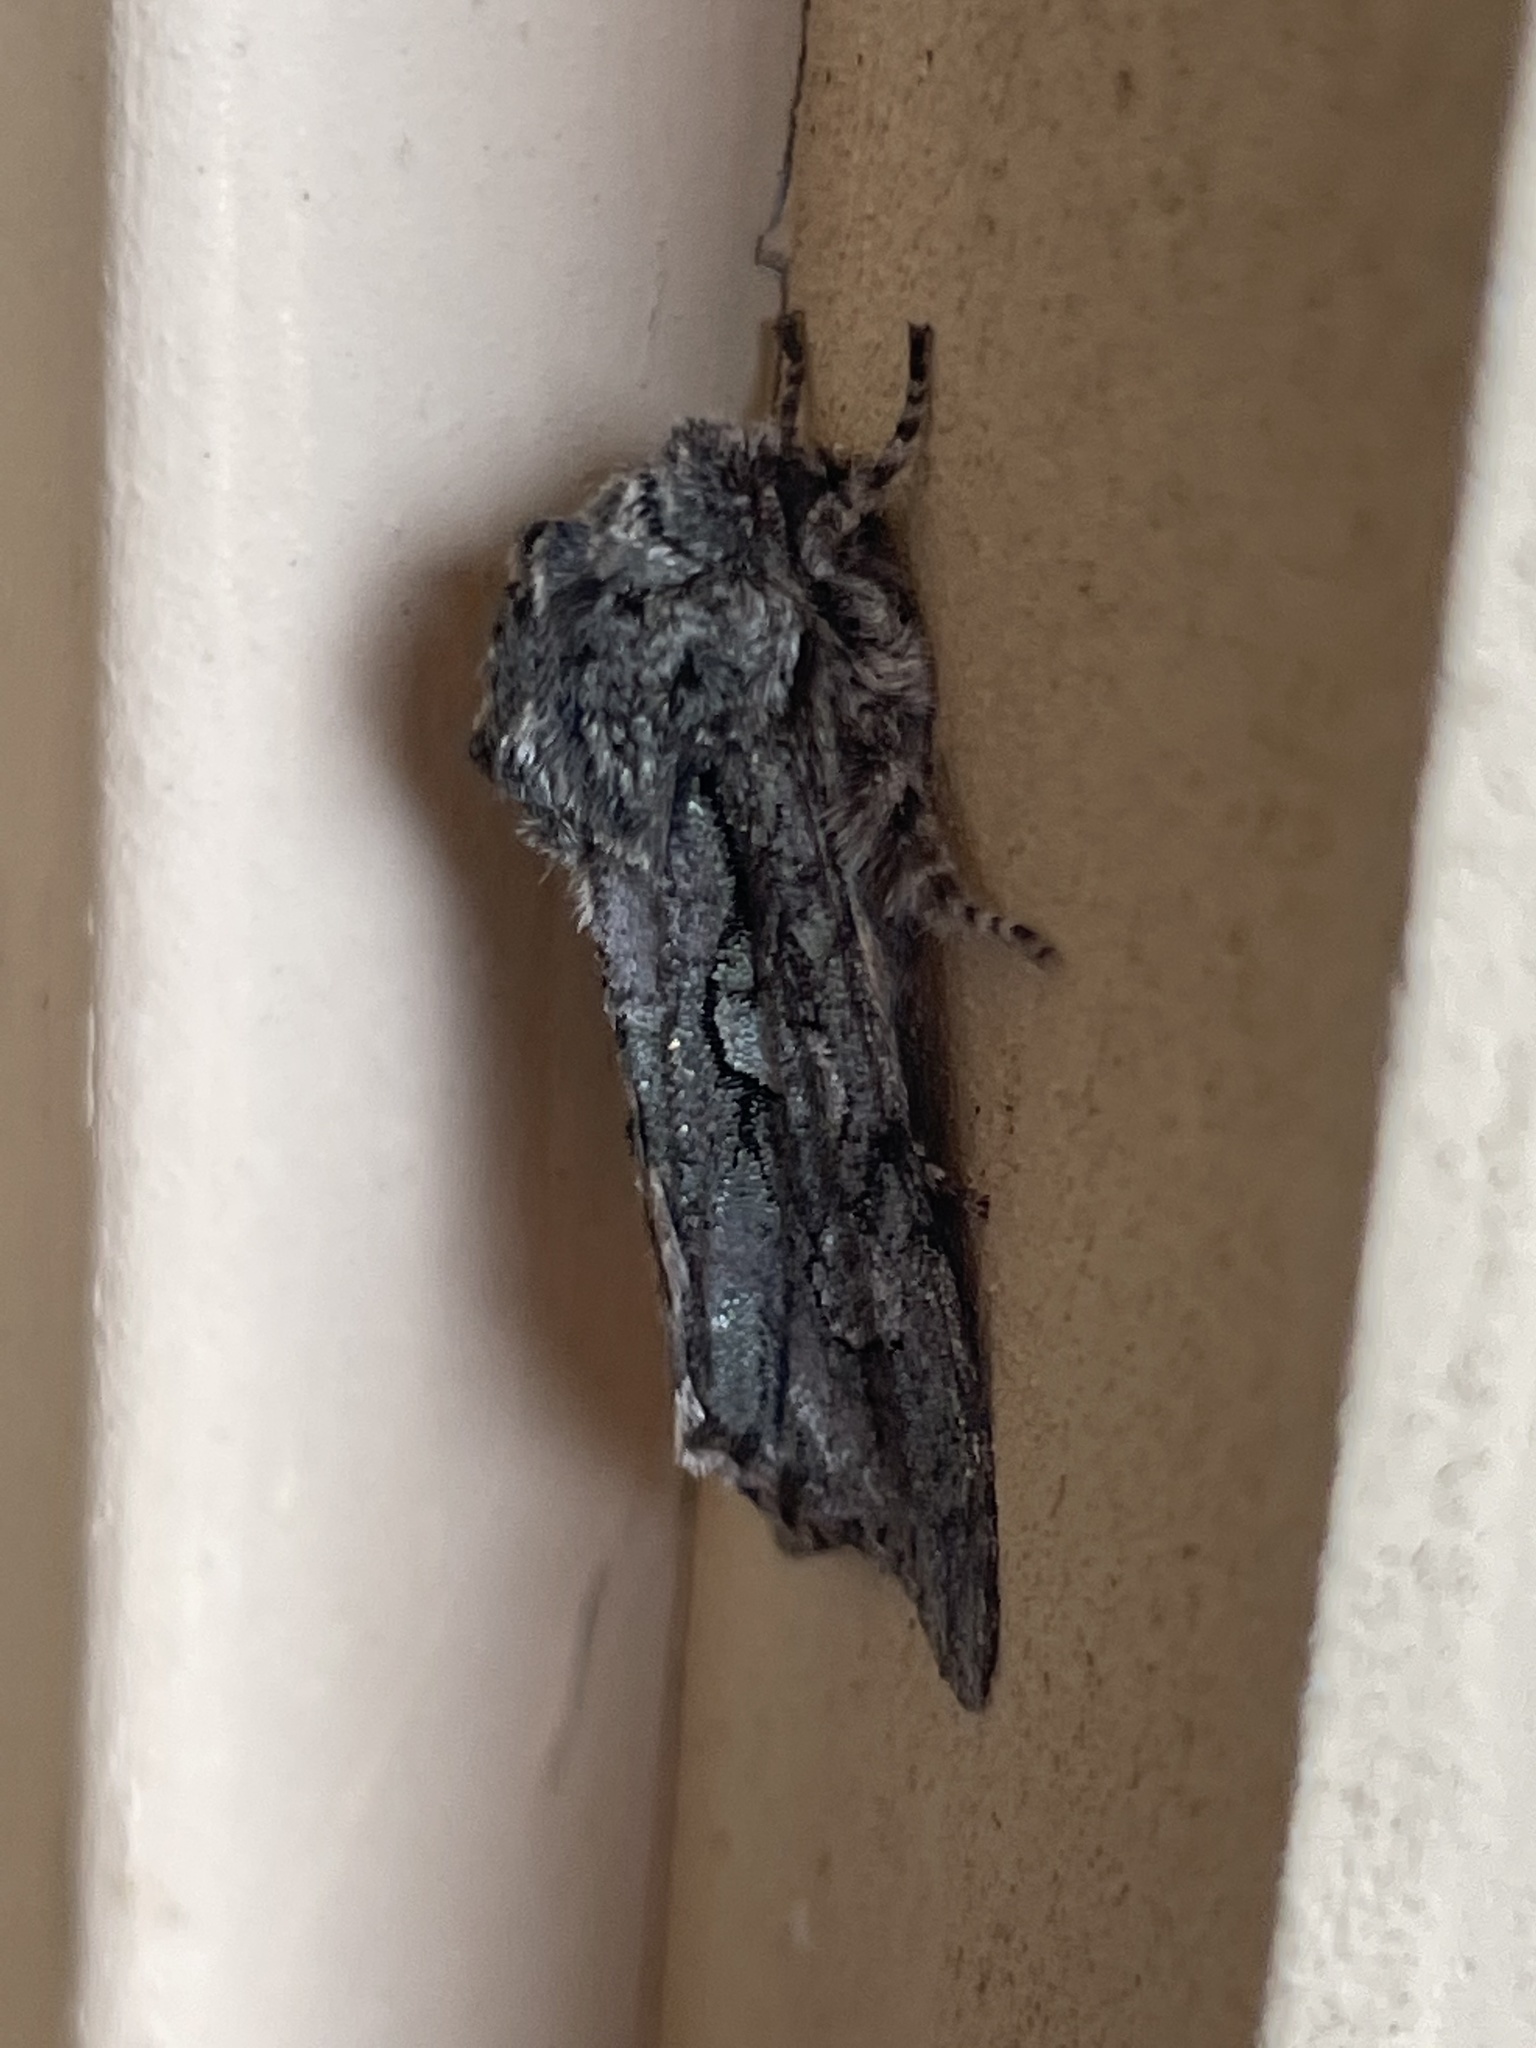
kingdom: Animalia
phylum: Arthropoda
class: Insecta
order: Lepidoptera
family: Noctuidae
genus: Psaphida
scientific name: Psaphida resumens
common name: Figure-eight sallow
